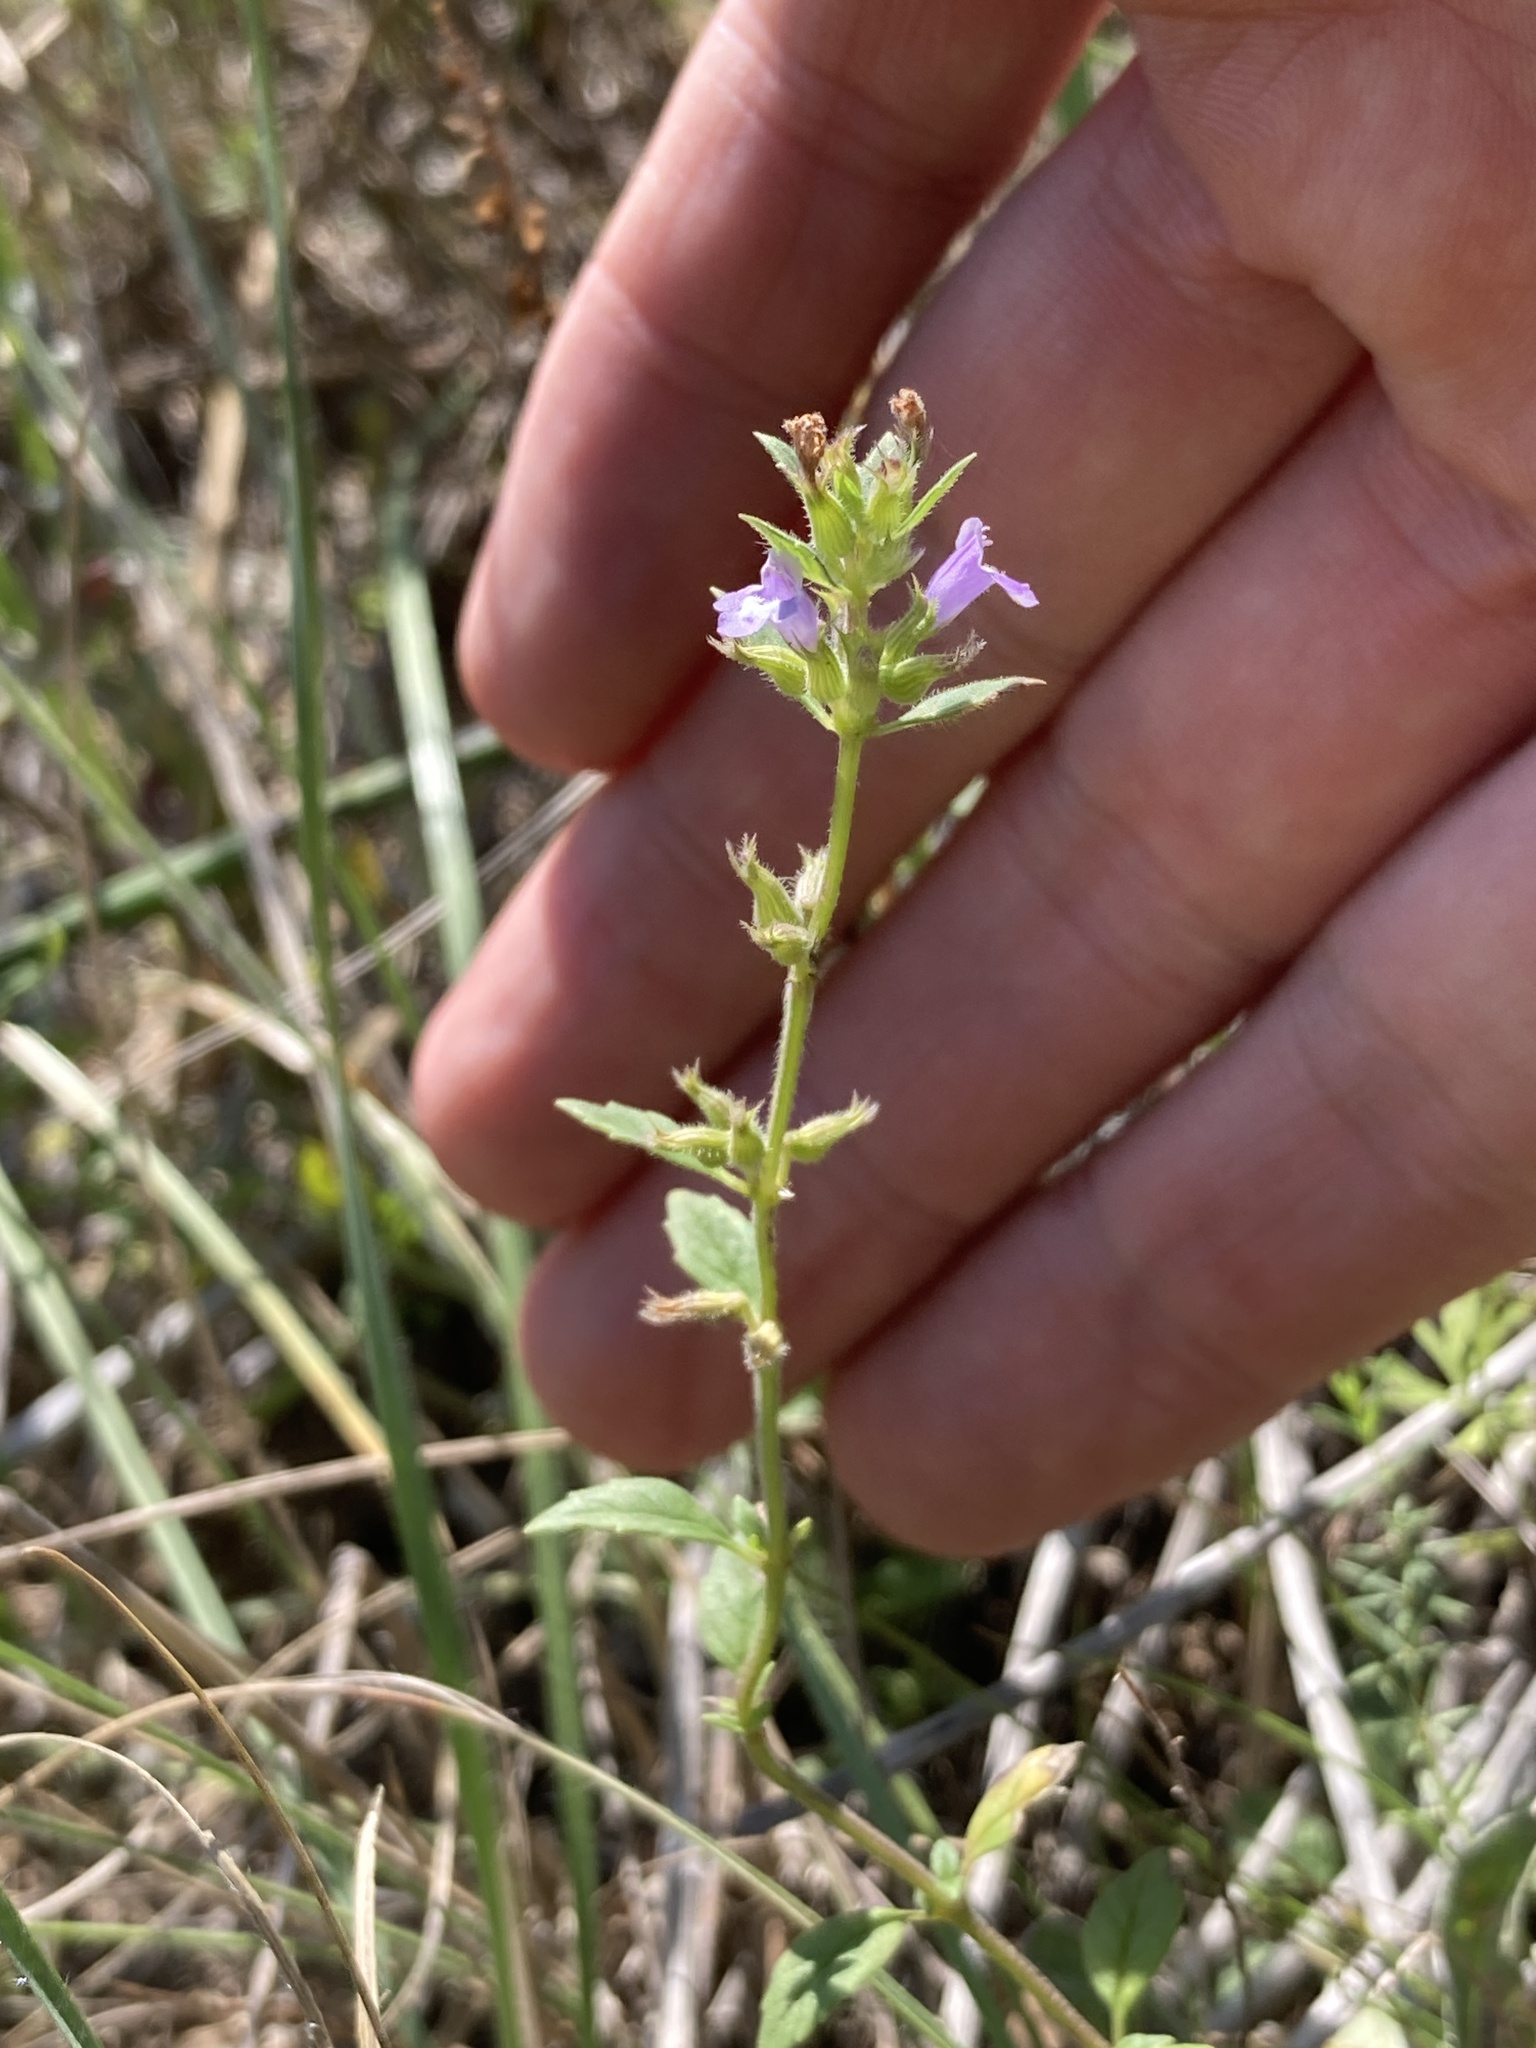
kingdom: Plantae
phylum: Tracheophyta
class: Magnoliopsida
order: Lamiales
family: Lamiaceae
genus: Clinopodium
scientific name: Clinopodium acinos
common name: Basil thyme
